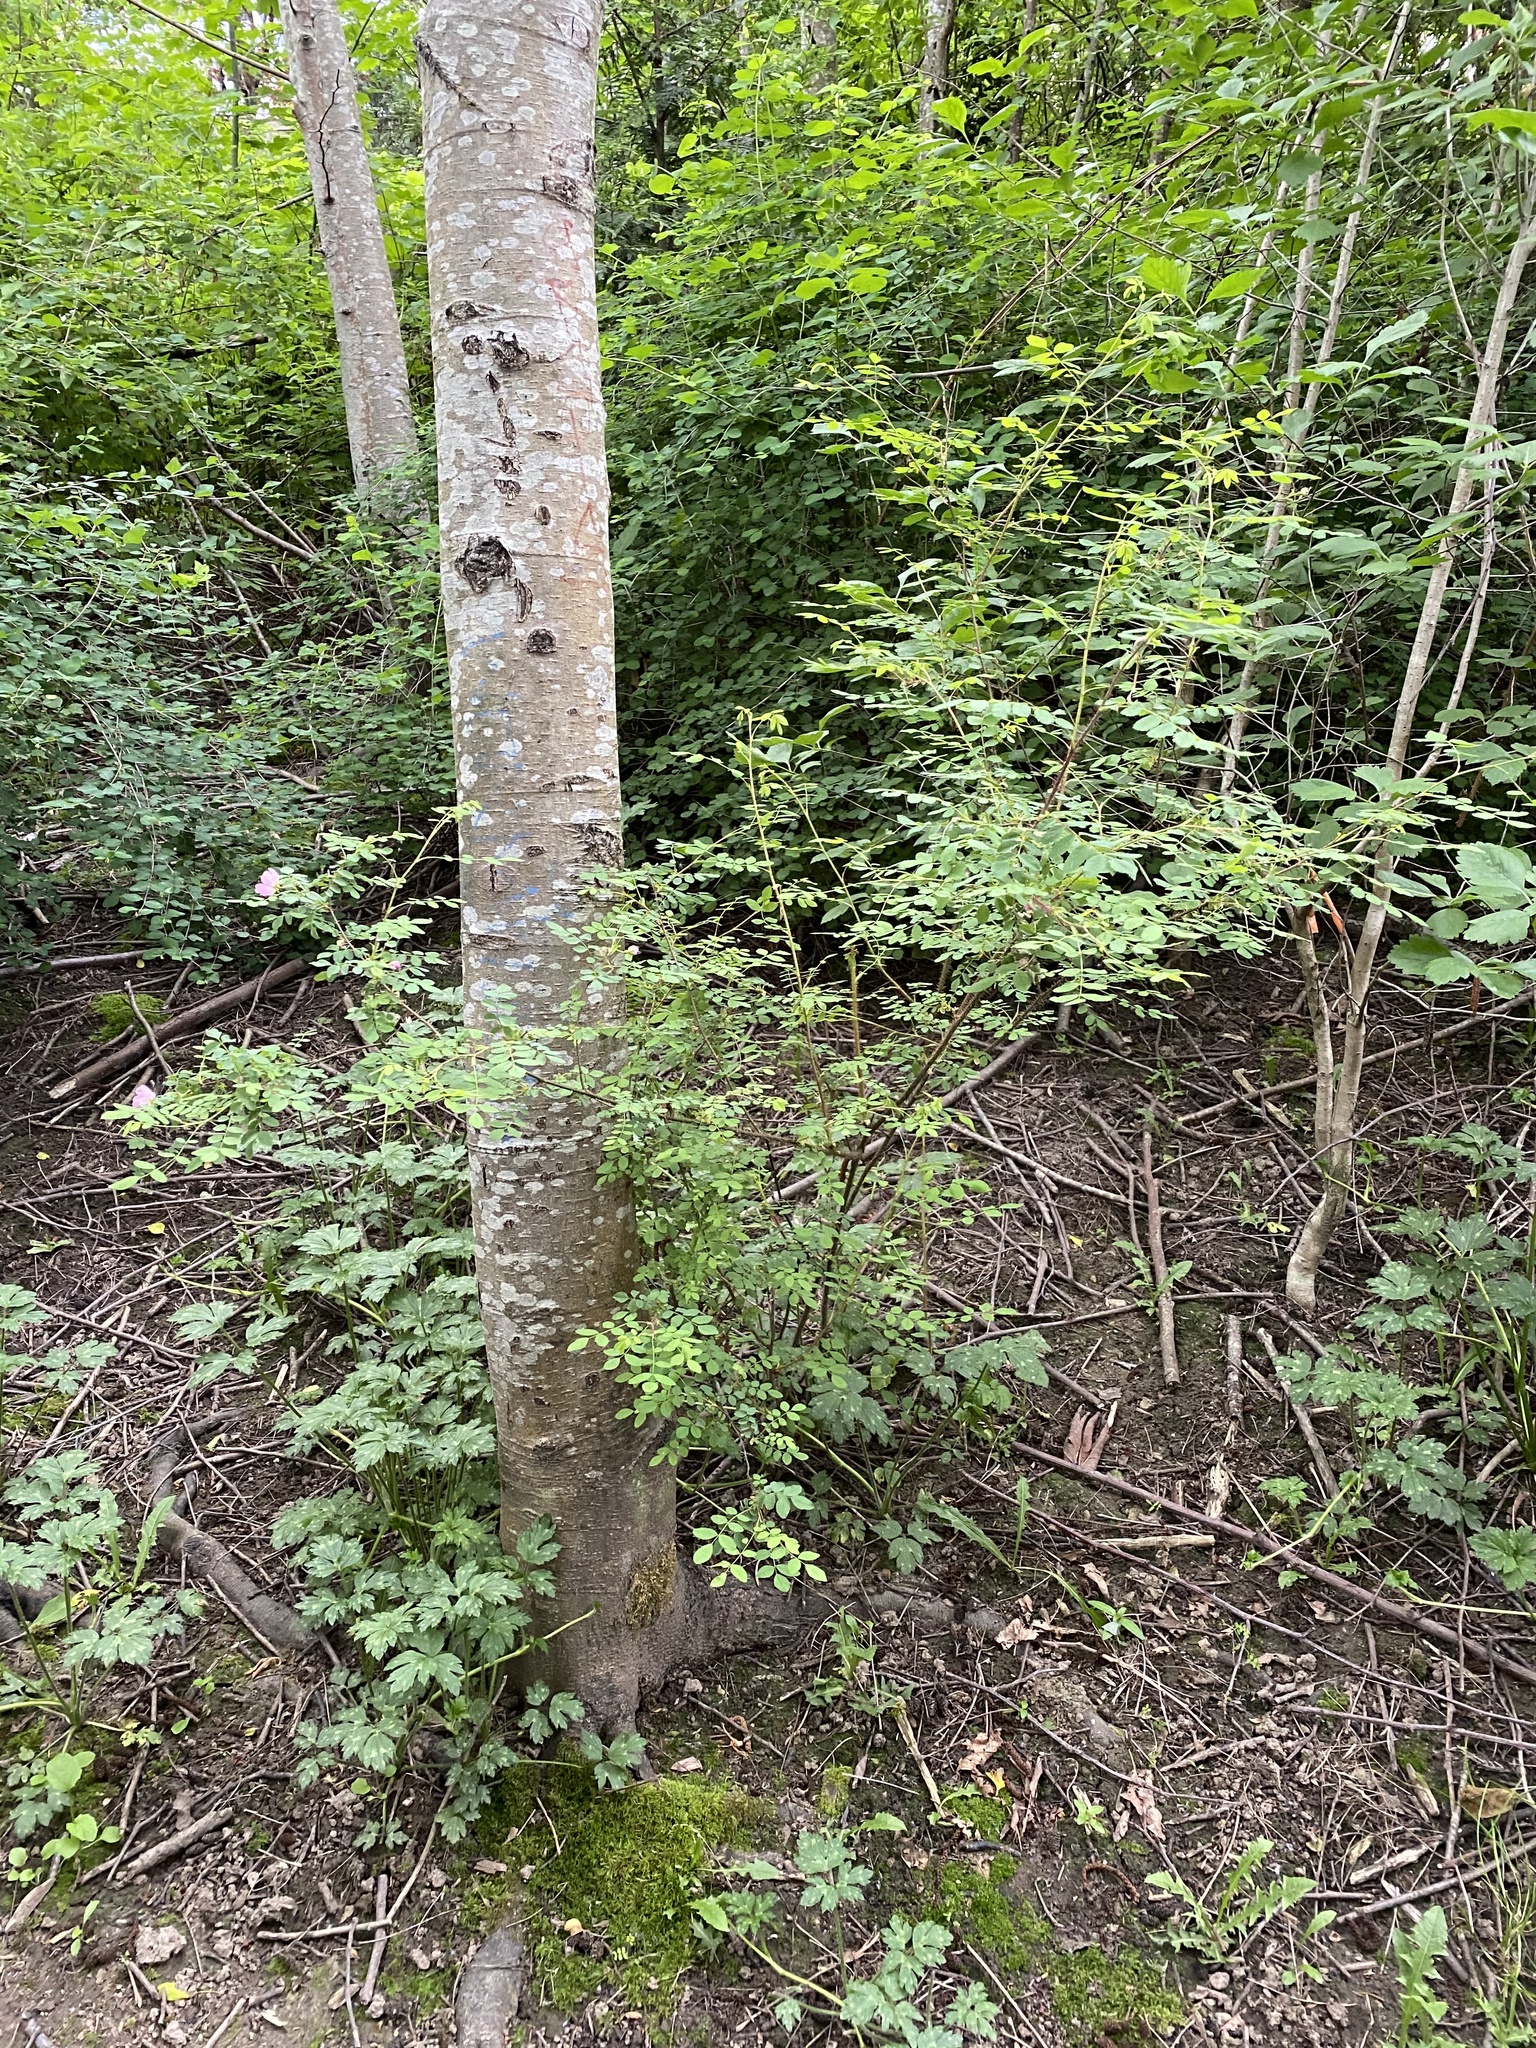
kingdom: Plantae
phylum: Tracheophyta
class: Magnoliopsida
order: Rosales
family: Rosaceae
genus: Rosa
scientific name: Rosa gymnocarpa
